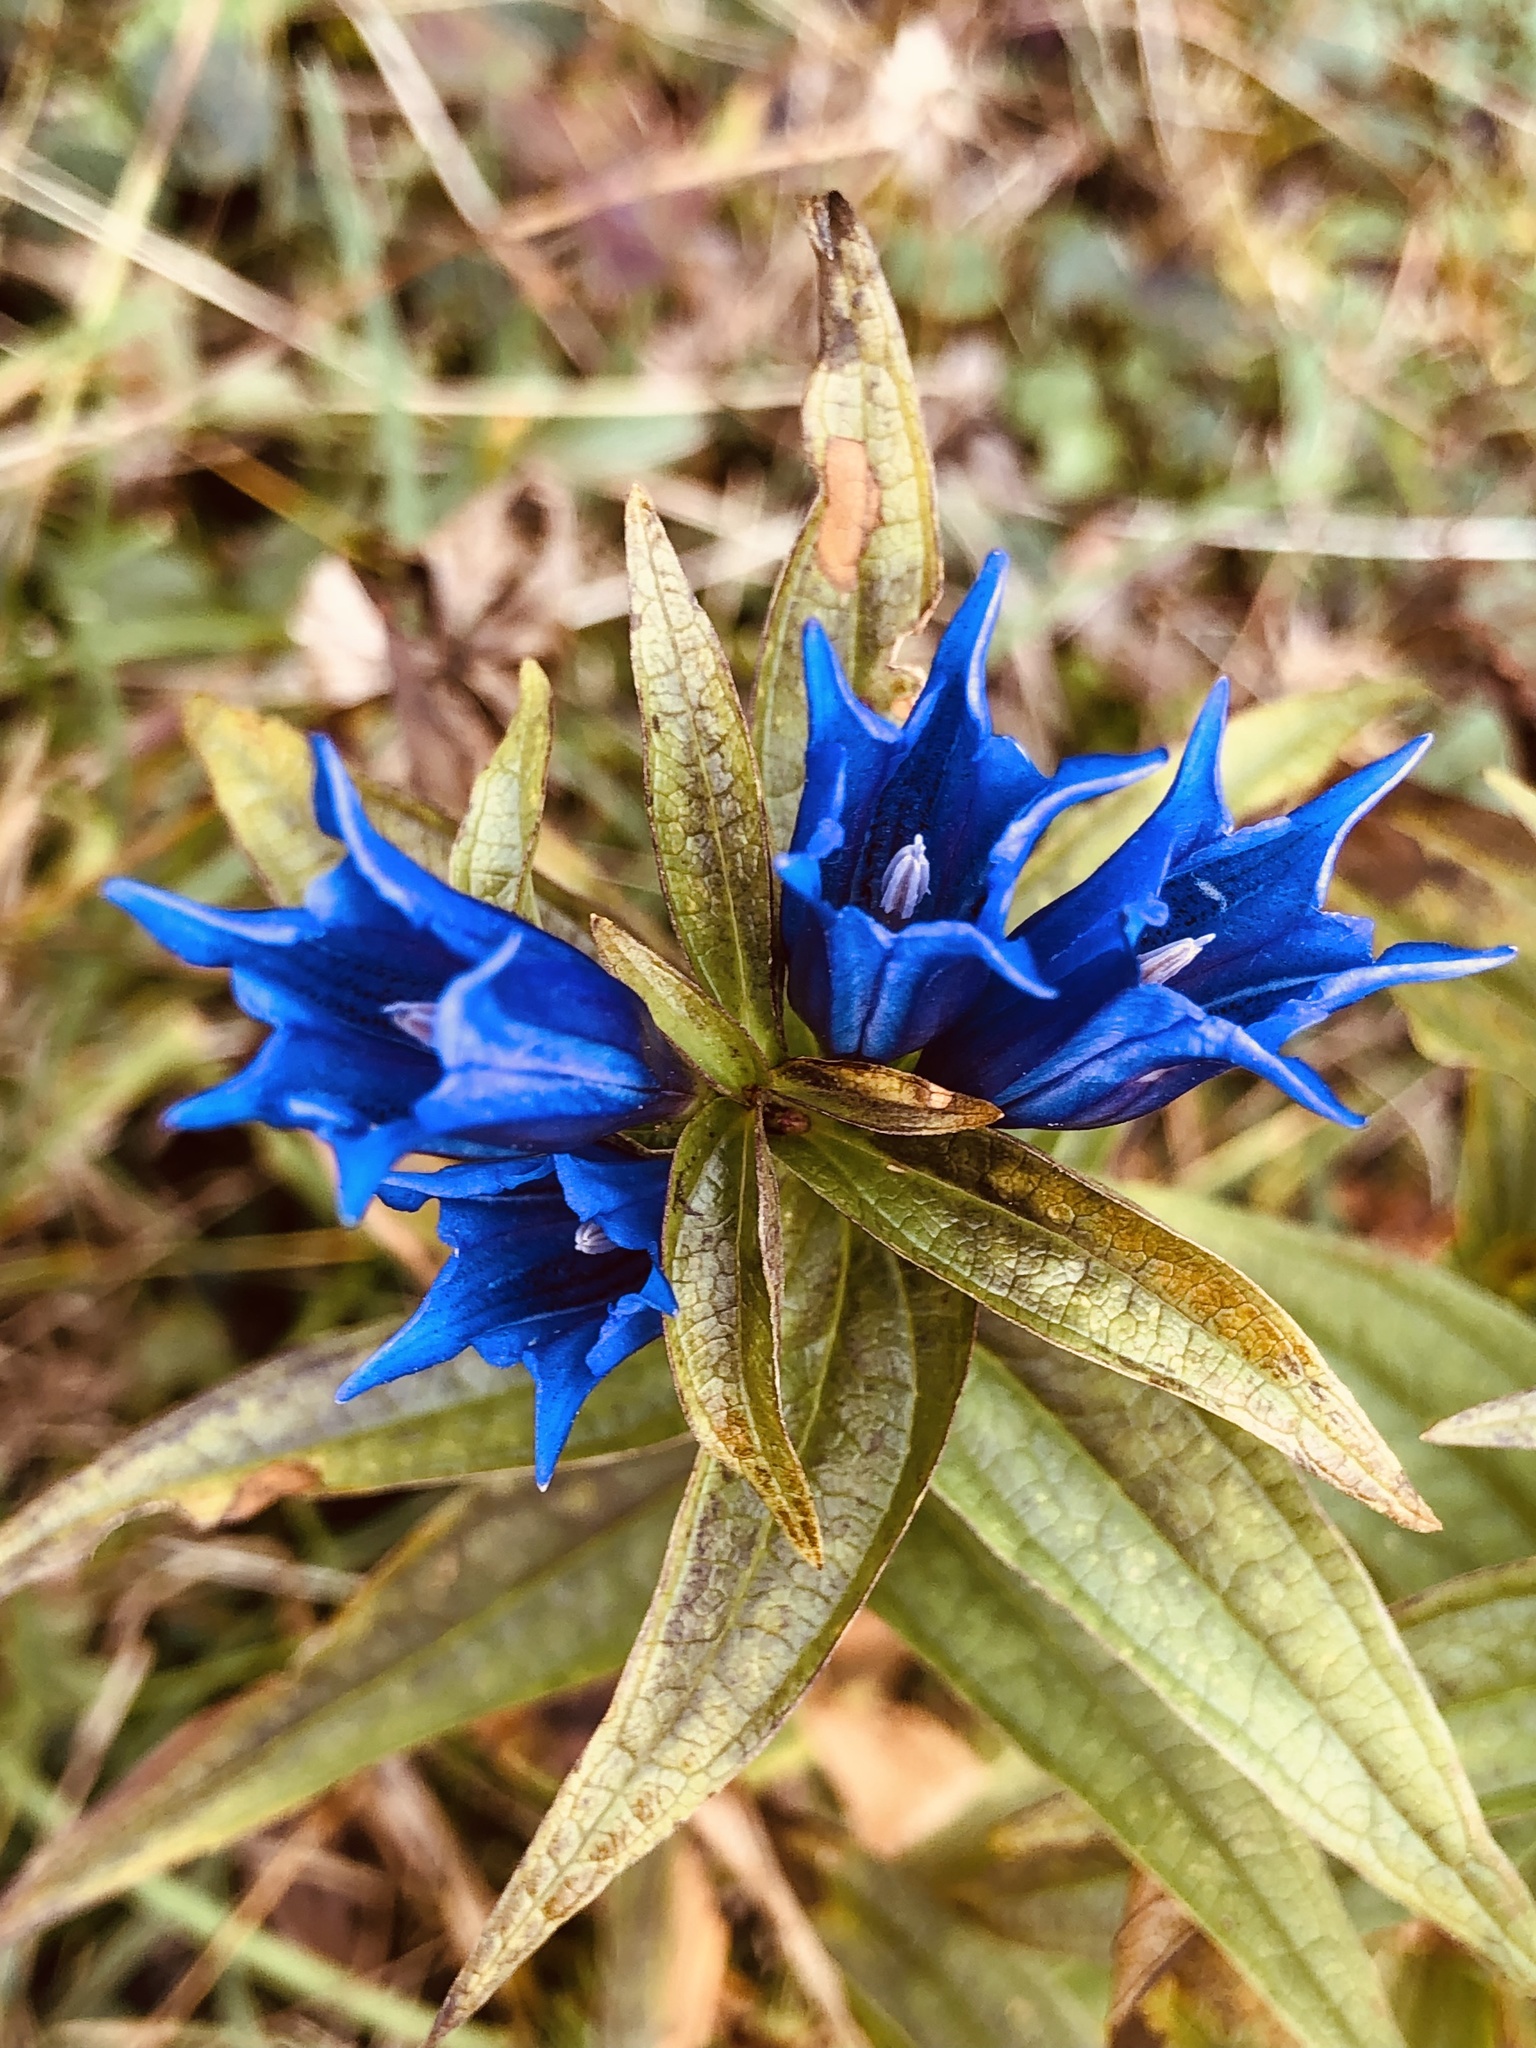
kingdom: Plantae
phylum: Tracheophyta
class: Magnoliopsida
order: Gentianales
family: Gentianaceae
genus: Gentiana
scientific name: Gentiana asclepiadea
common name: Willow gentian
